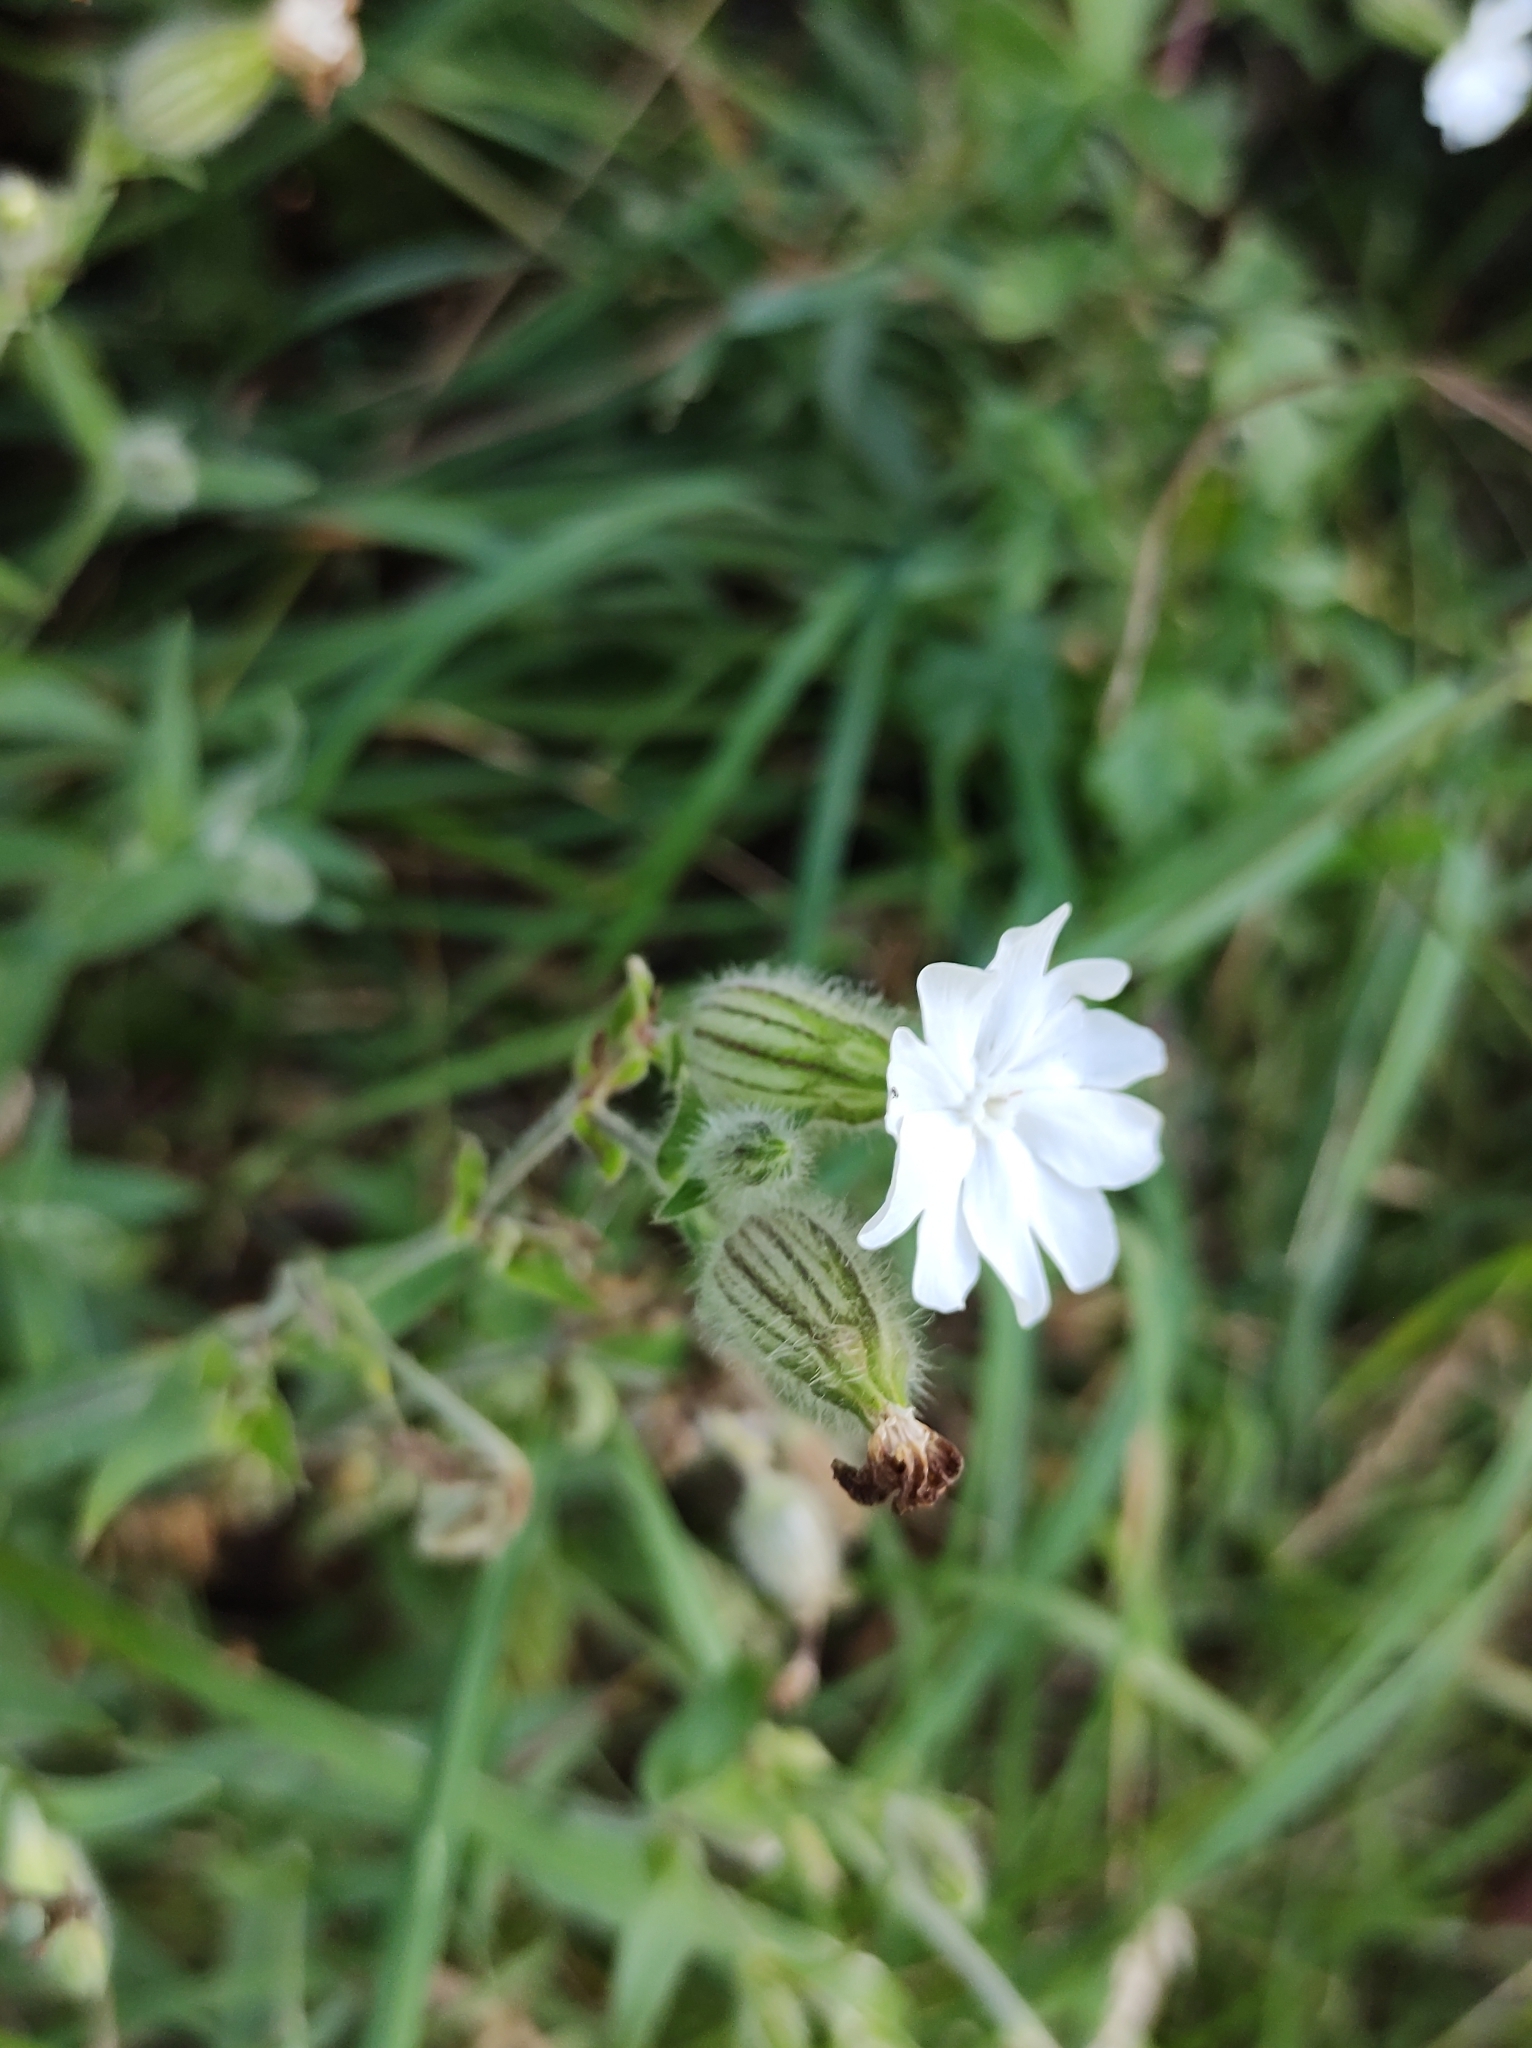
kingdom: Plantae
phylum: Tracheophyta
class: Magnoliopsida
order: Caryophyllales
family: Caryophyllaceae
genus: Silene
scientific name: Silene latifolia
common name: White campion
